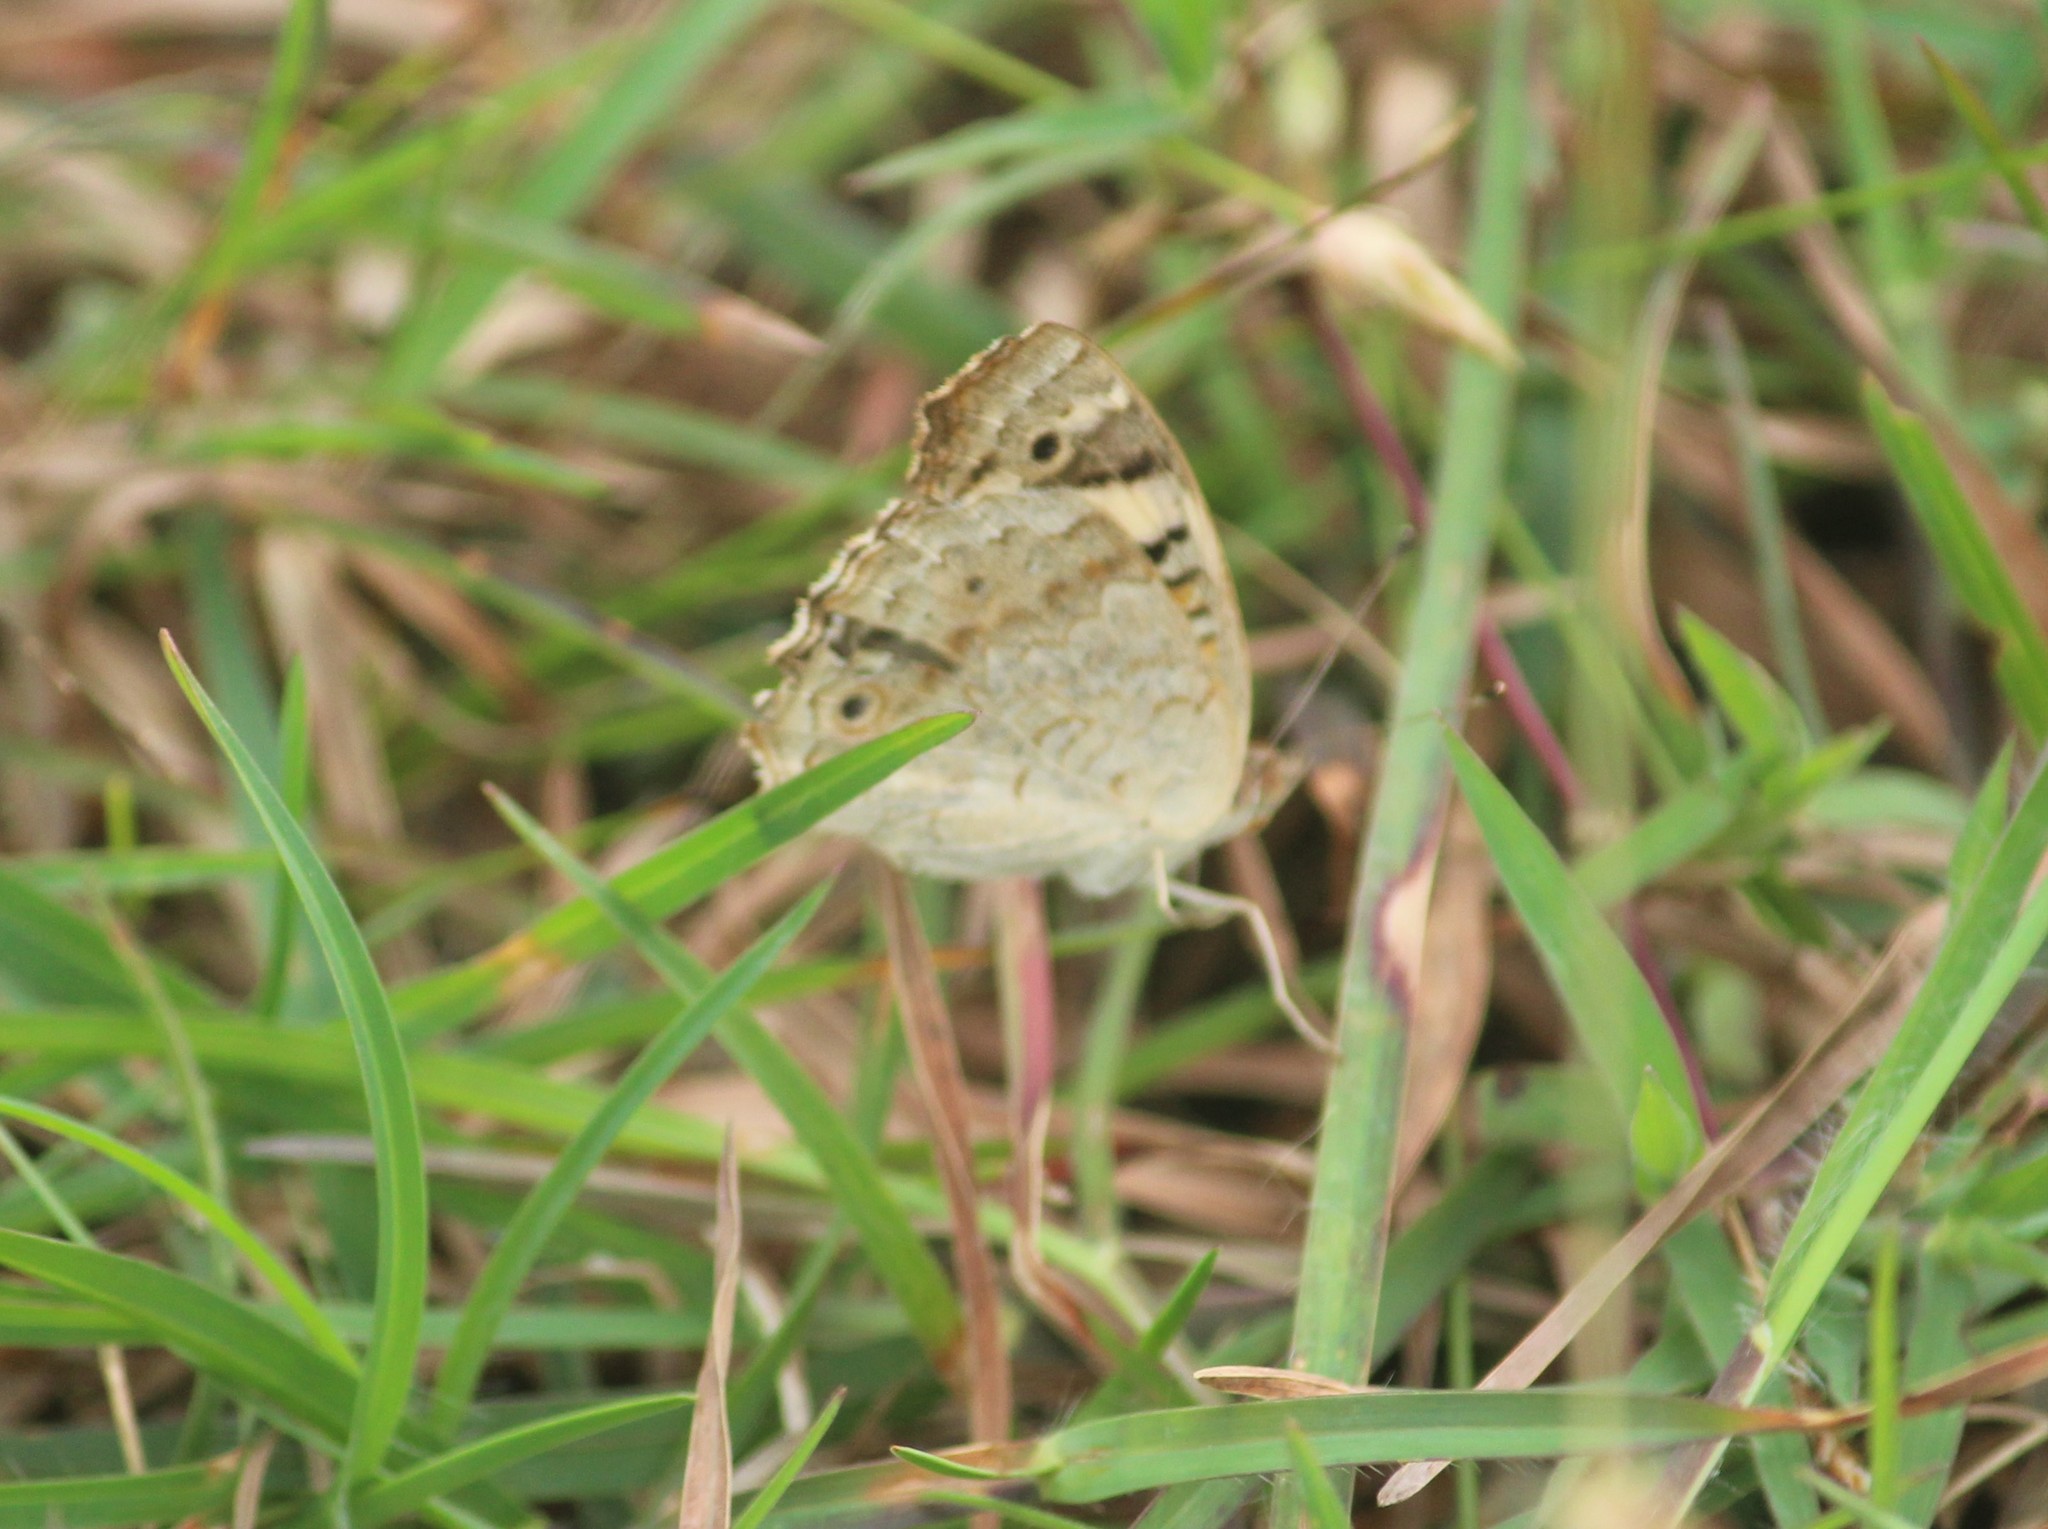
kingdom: Animalia
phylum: Arthropoda
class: Insecta
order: Lepidoptera
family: Nymphalidae
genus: Junonia
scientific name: Junonia orithya
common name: Blue pansy
